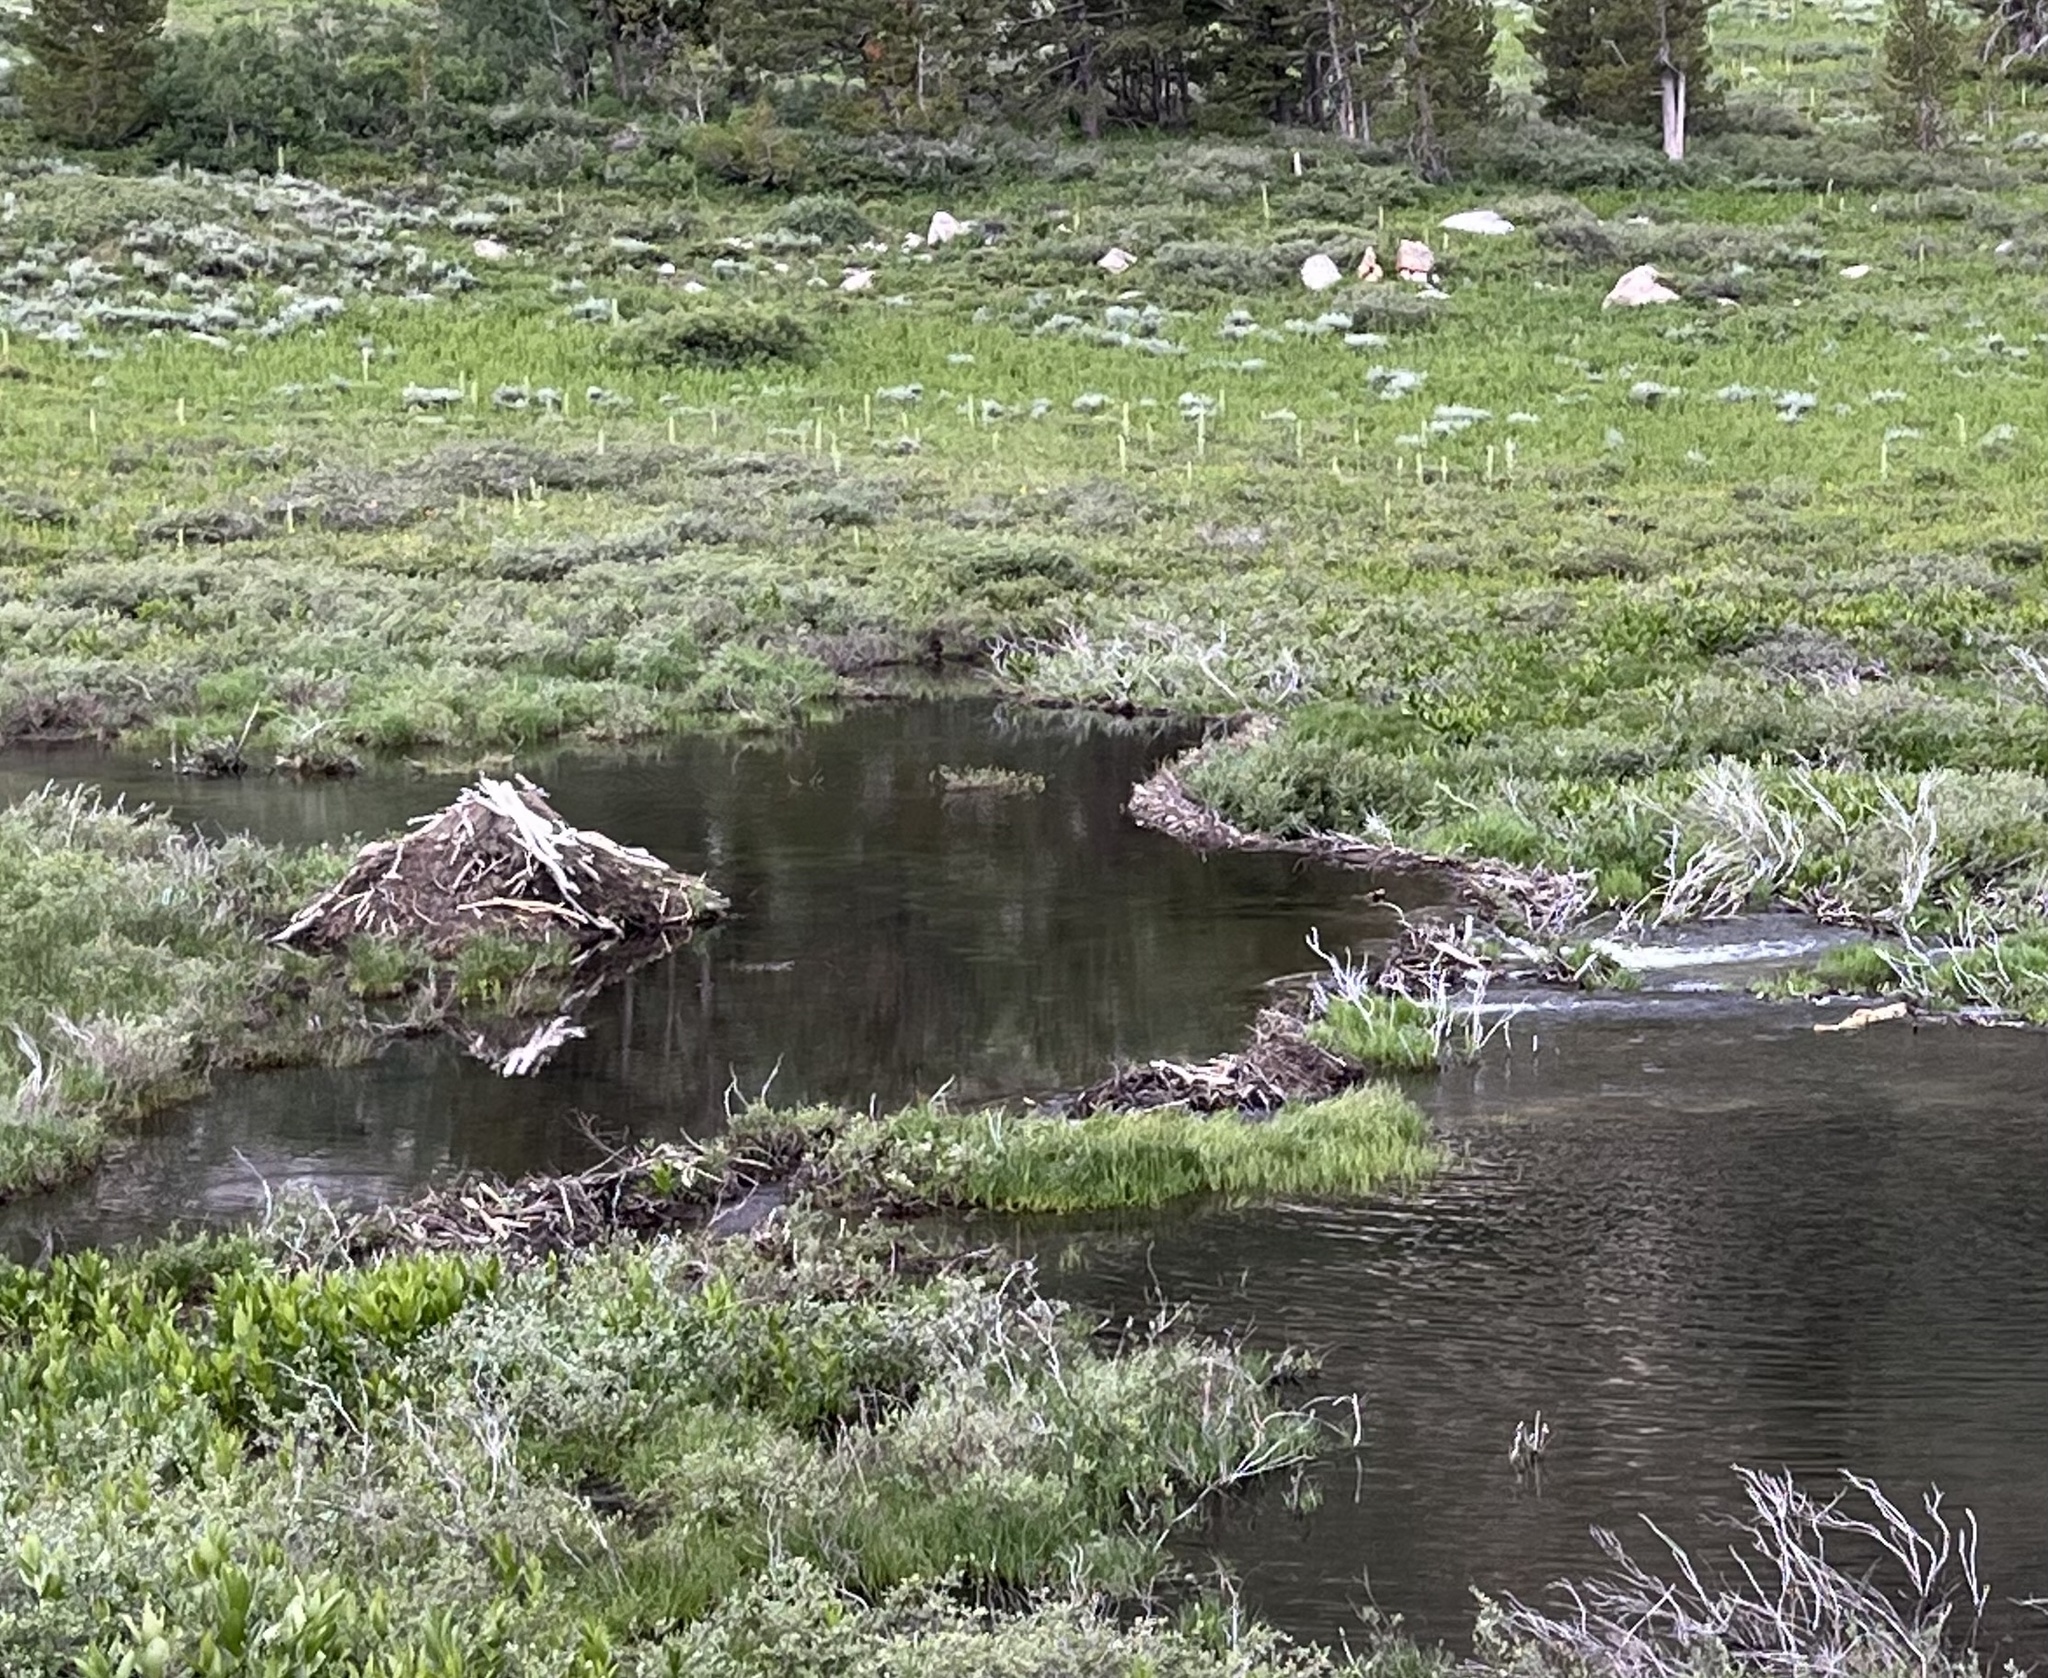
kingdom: Animalia
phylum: Chordata
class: Mammalia
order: Rodentia
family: Castoridae
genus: Castor
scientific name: Castor canadensis
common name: American beaver
